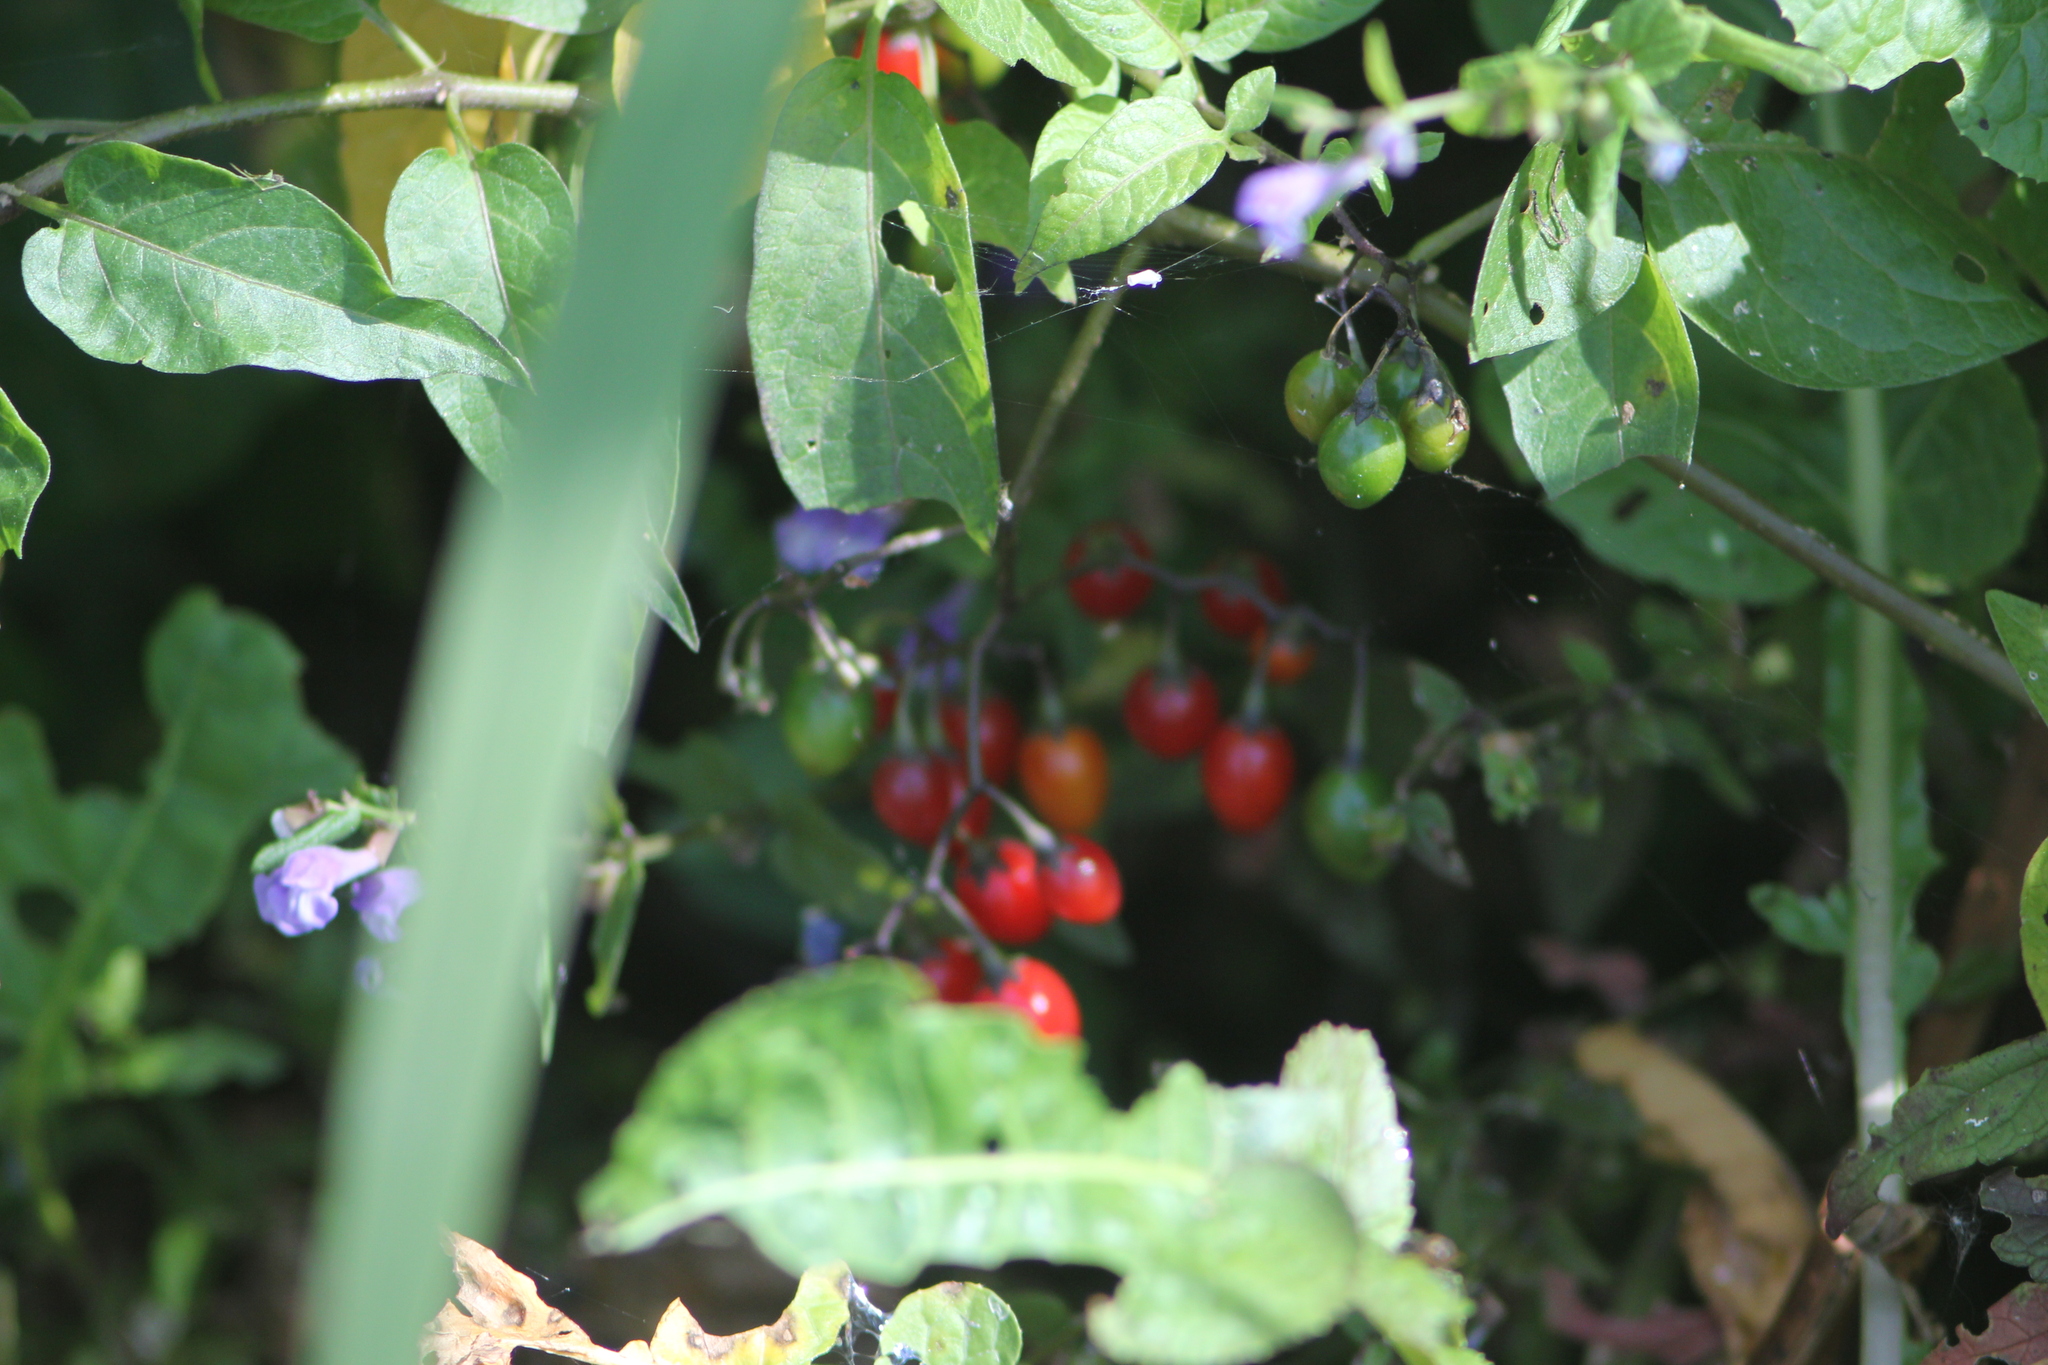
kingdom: Plantae
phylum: Tracheophyta
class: Magnoliopsida
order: Solanales
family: Solanaceae
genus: Solanum
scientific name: Solanum dulcamara
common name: Climbing nightshade
